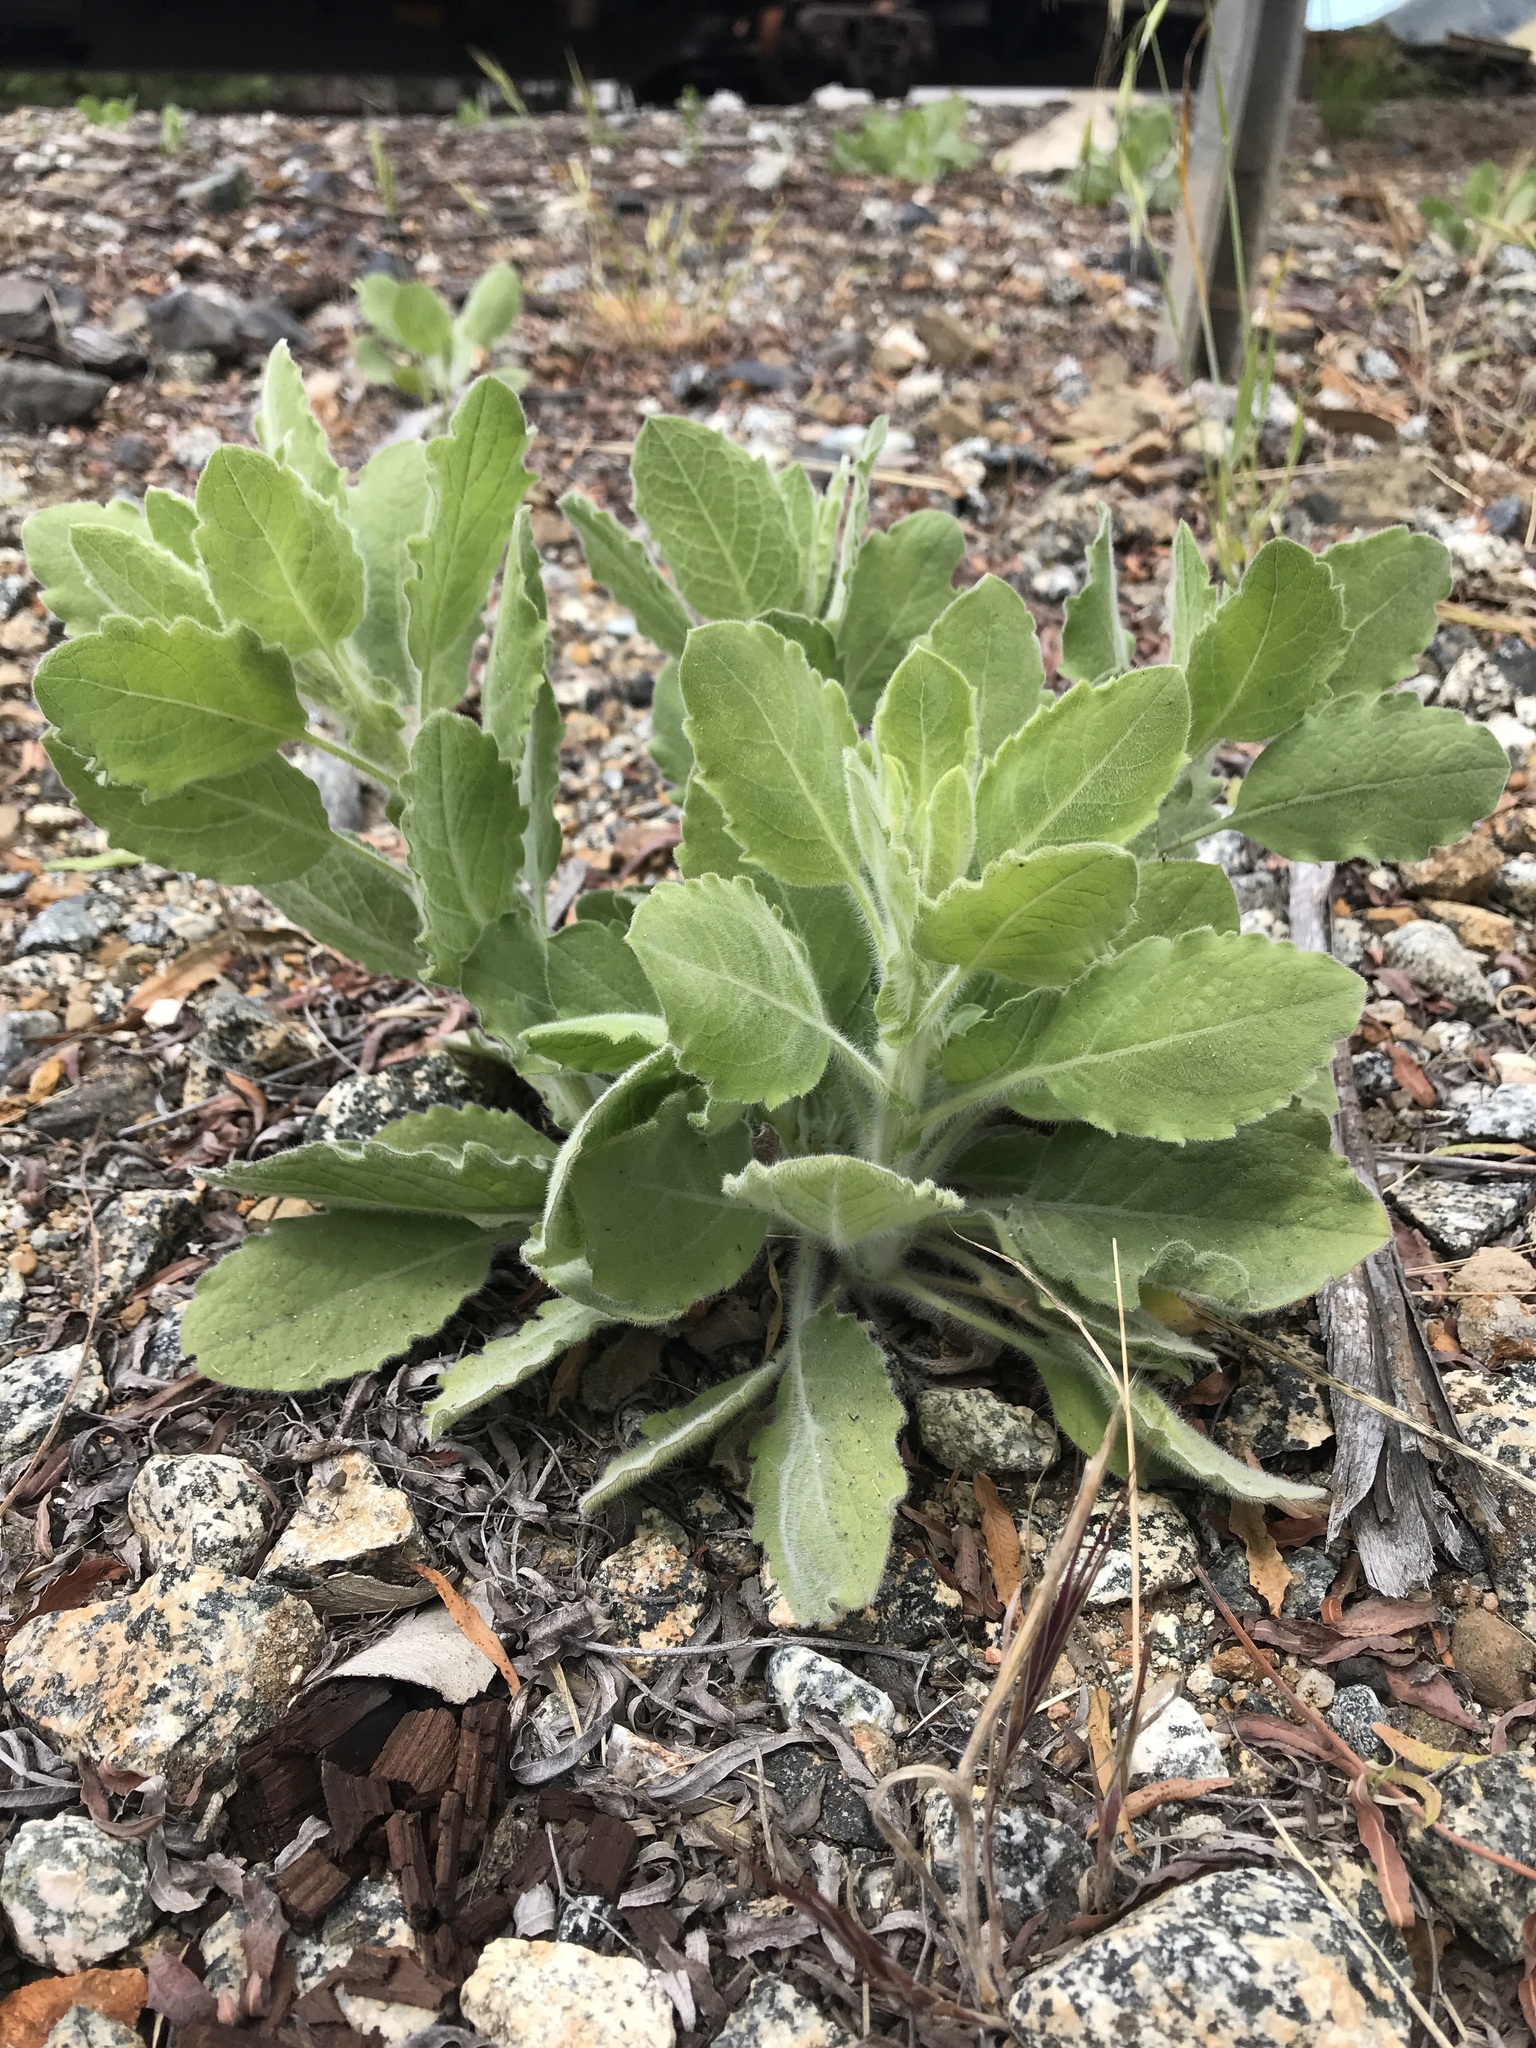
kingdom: Plantae
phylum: Tracheophyta
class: Magnoliopsida
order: Asterales
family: Asteraceae
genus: Heterotheca
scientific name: Heterotheca grandiflora
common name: Telegraphweed
